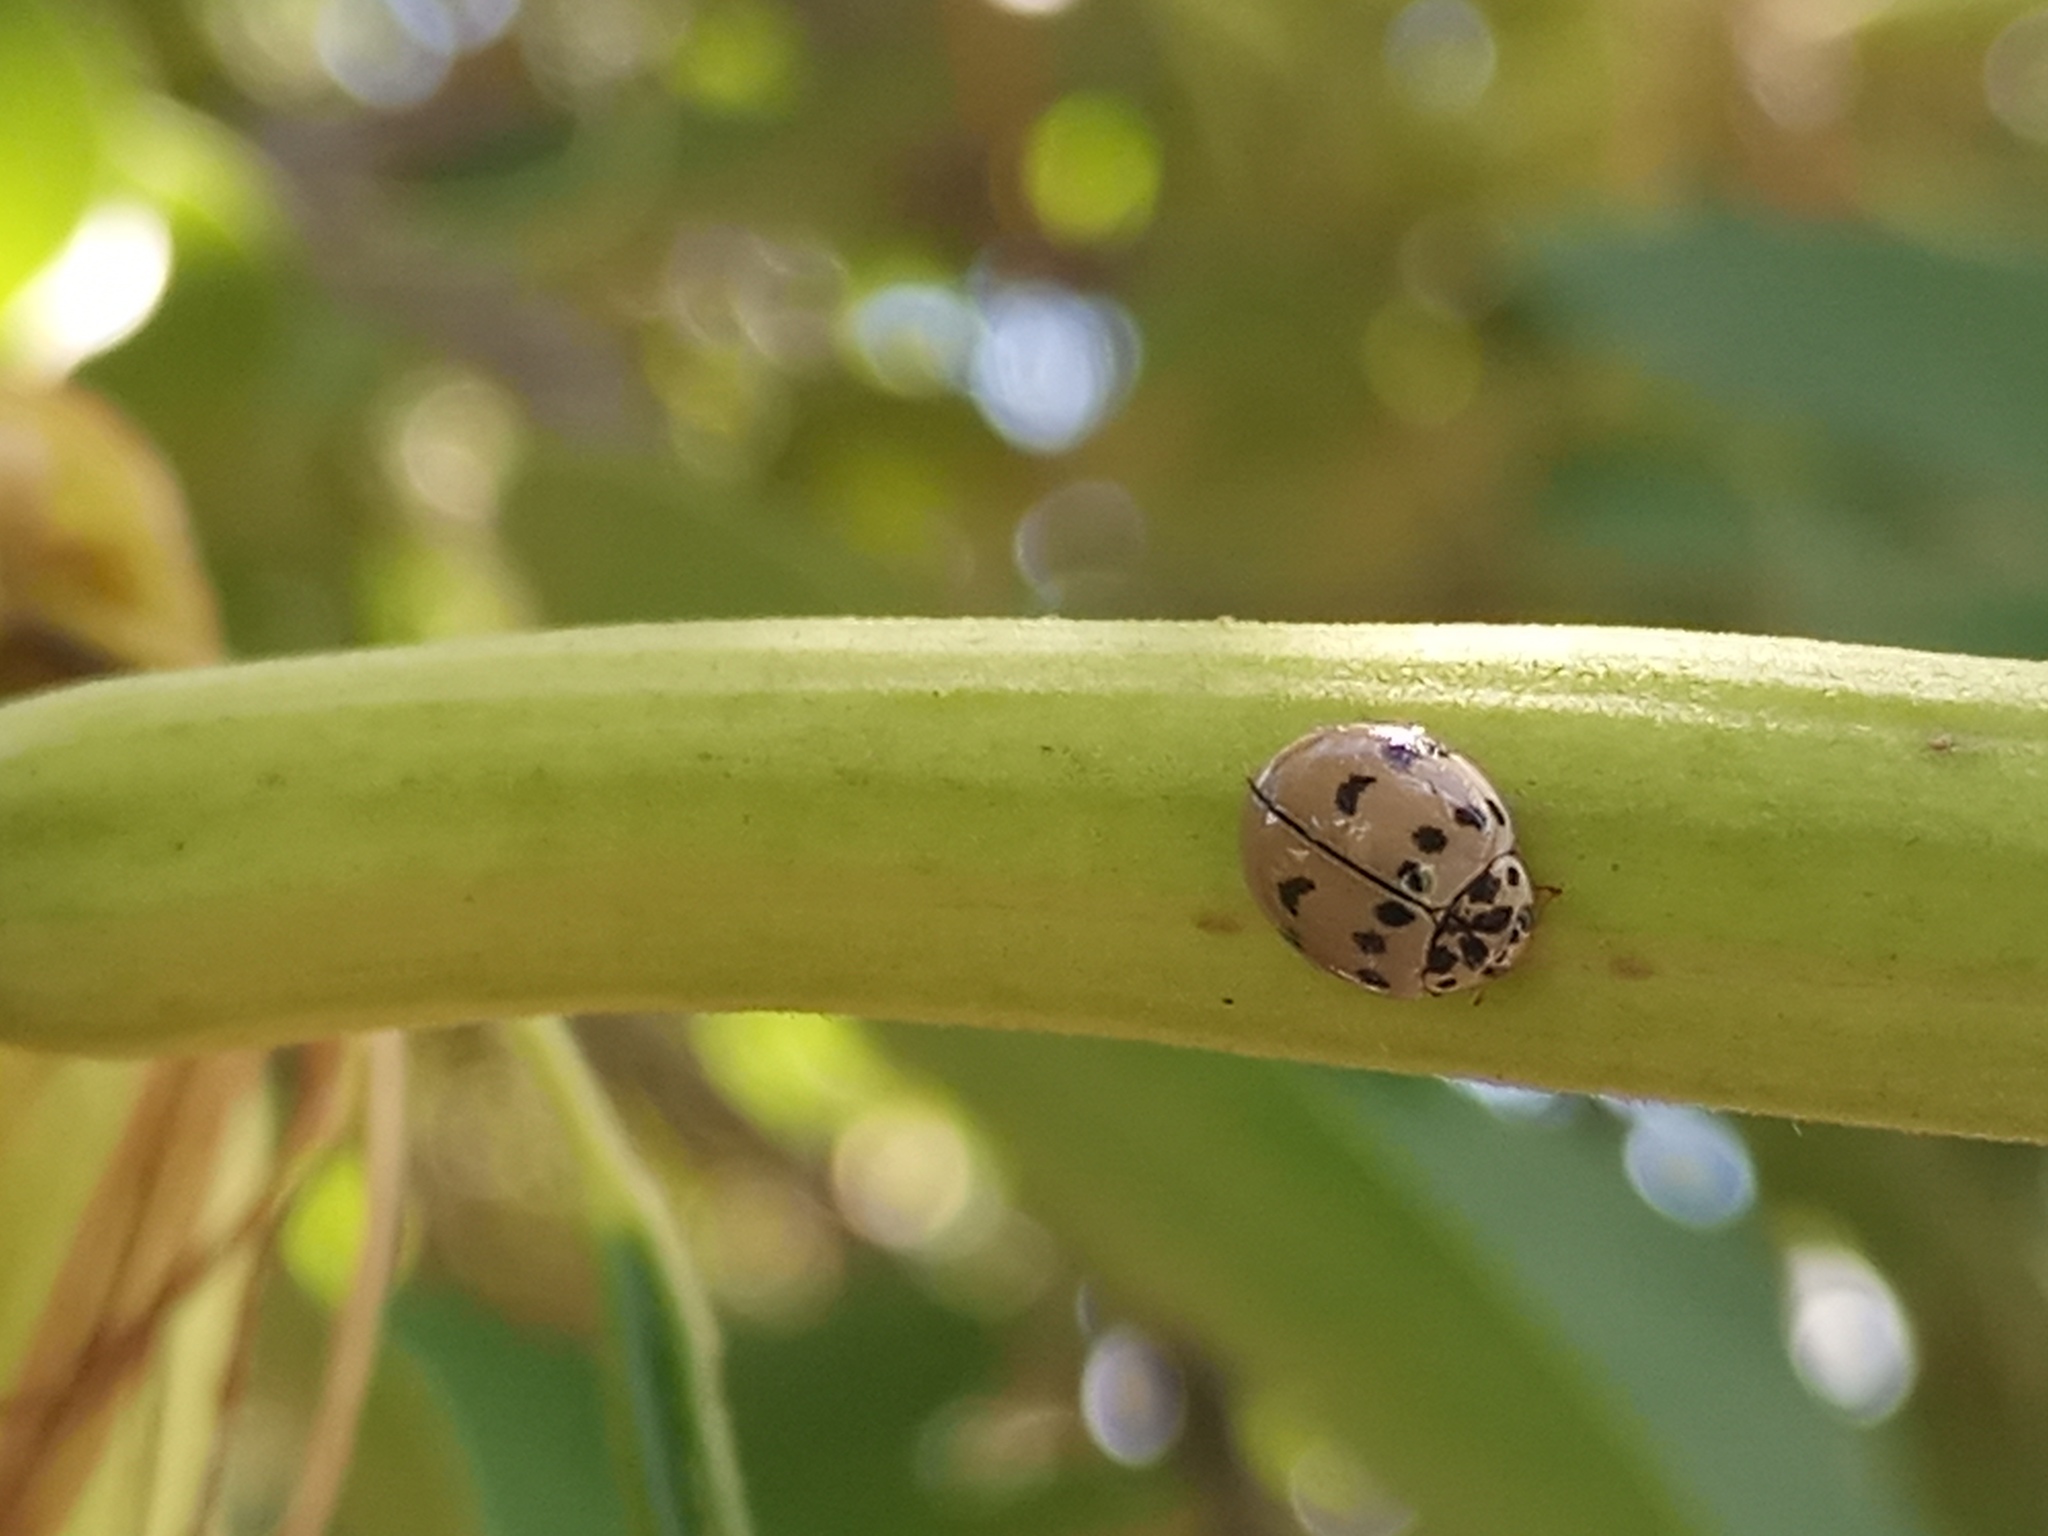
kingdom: Animalia
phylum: Arthropoda
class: Insecta
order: Coleoptera
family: Coccinellidae
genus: Olla
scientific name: Olla v-nigrum
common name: Ashy gray lady beetle
